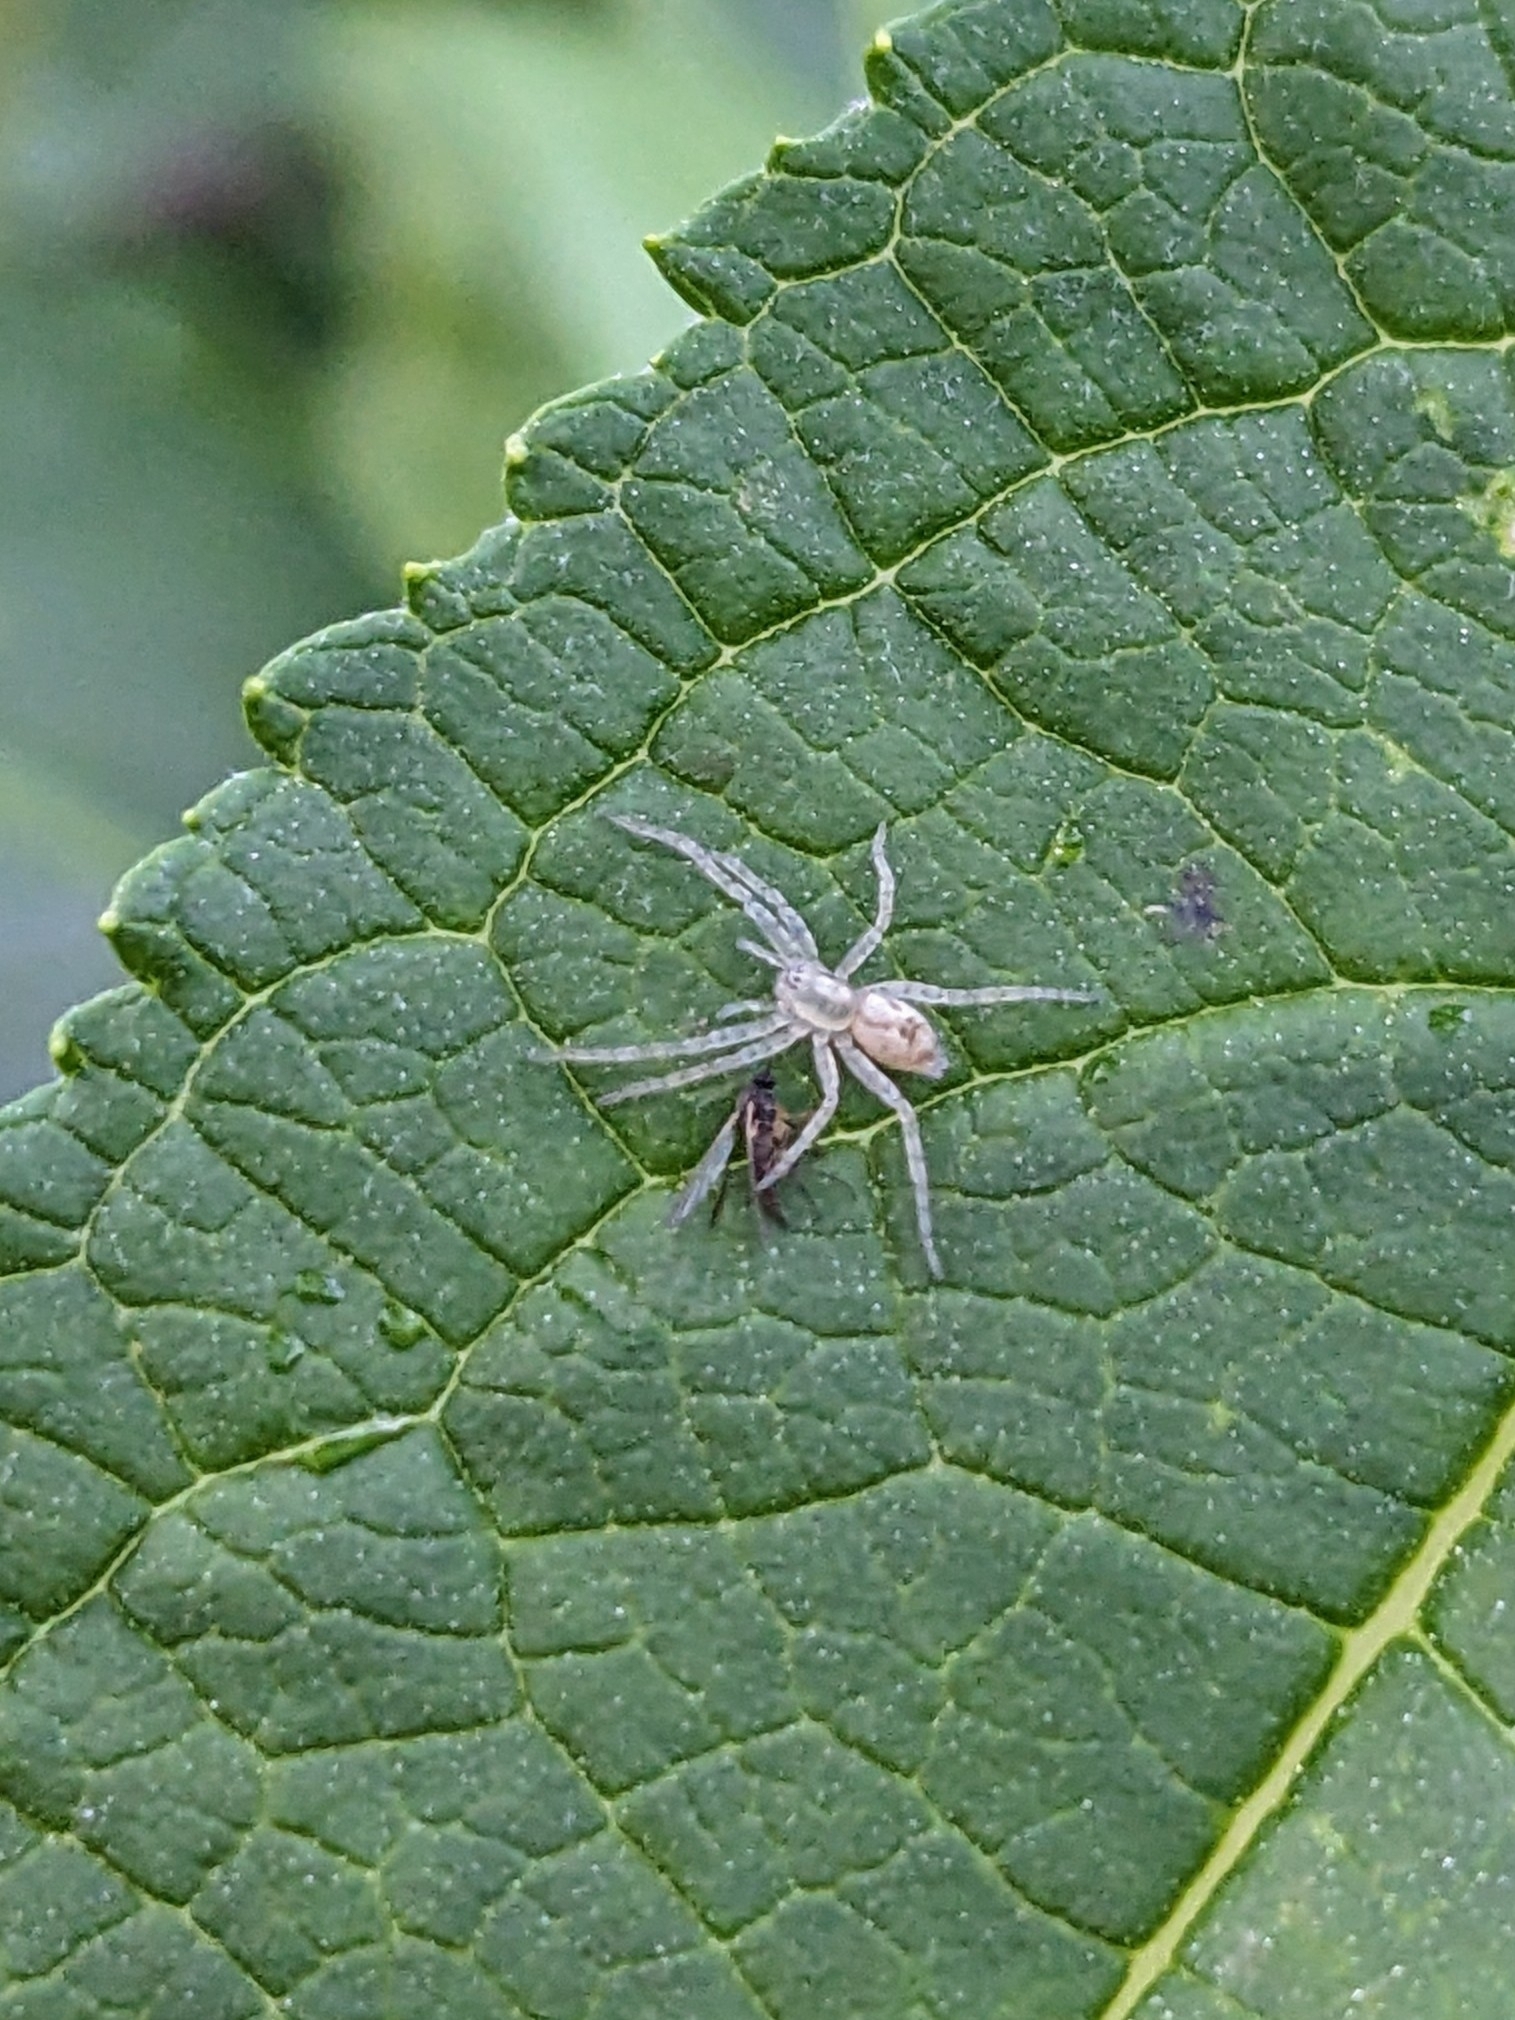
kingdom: Animalia
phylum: Arthropoda
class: Arachnida
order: Araneae
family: Anyphaenidae
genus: Anyphaena
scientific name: Anyphaena accentuata
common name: Buzzing spider
